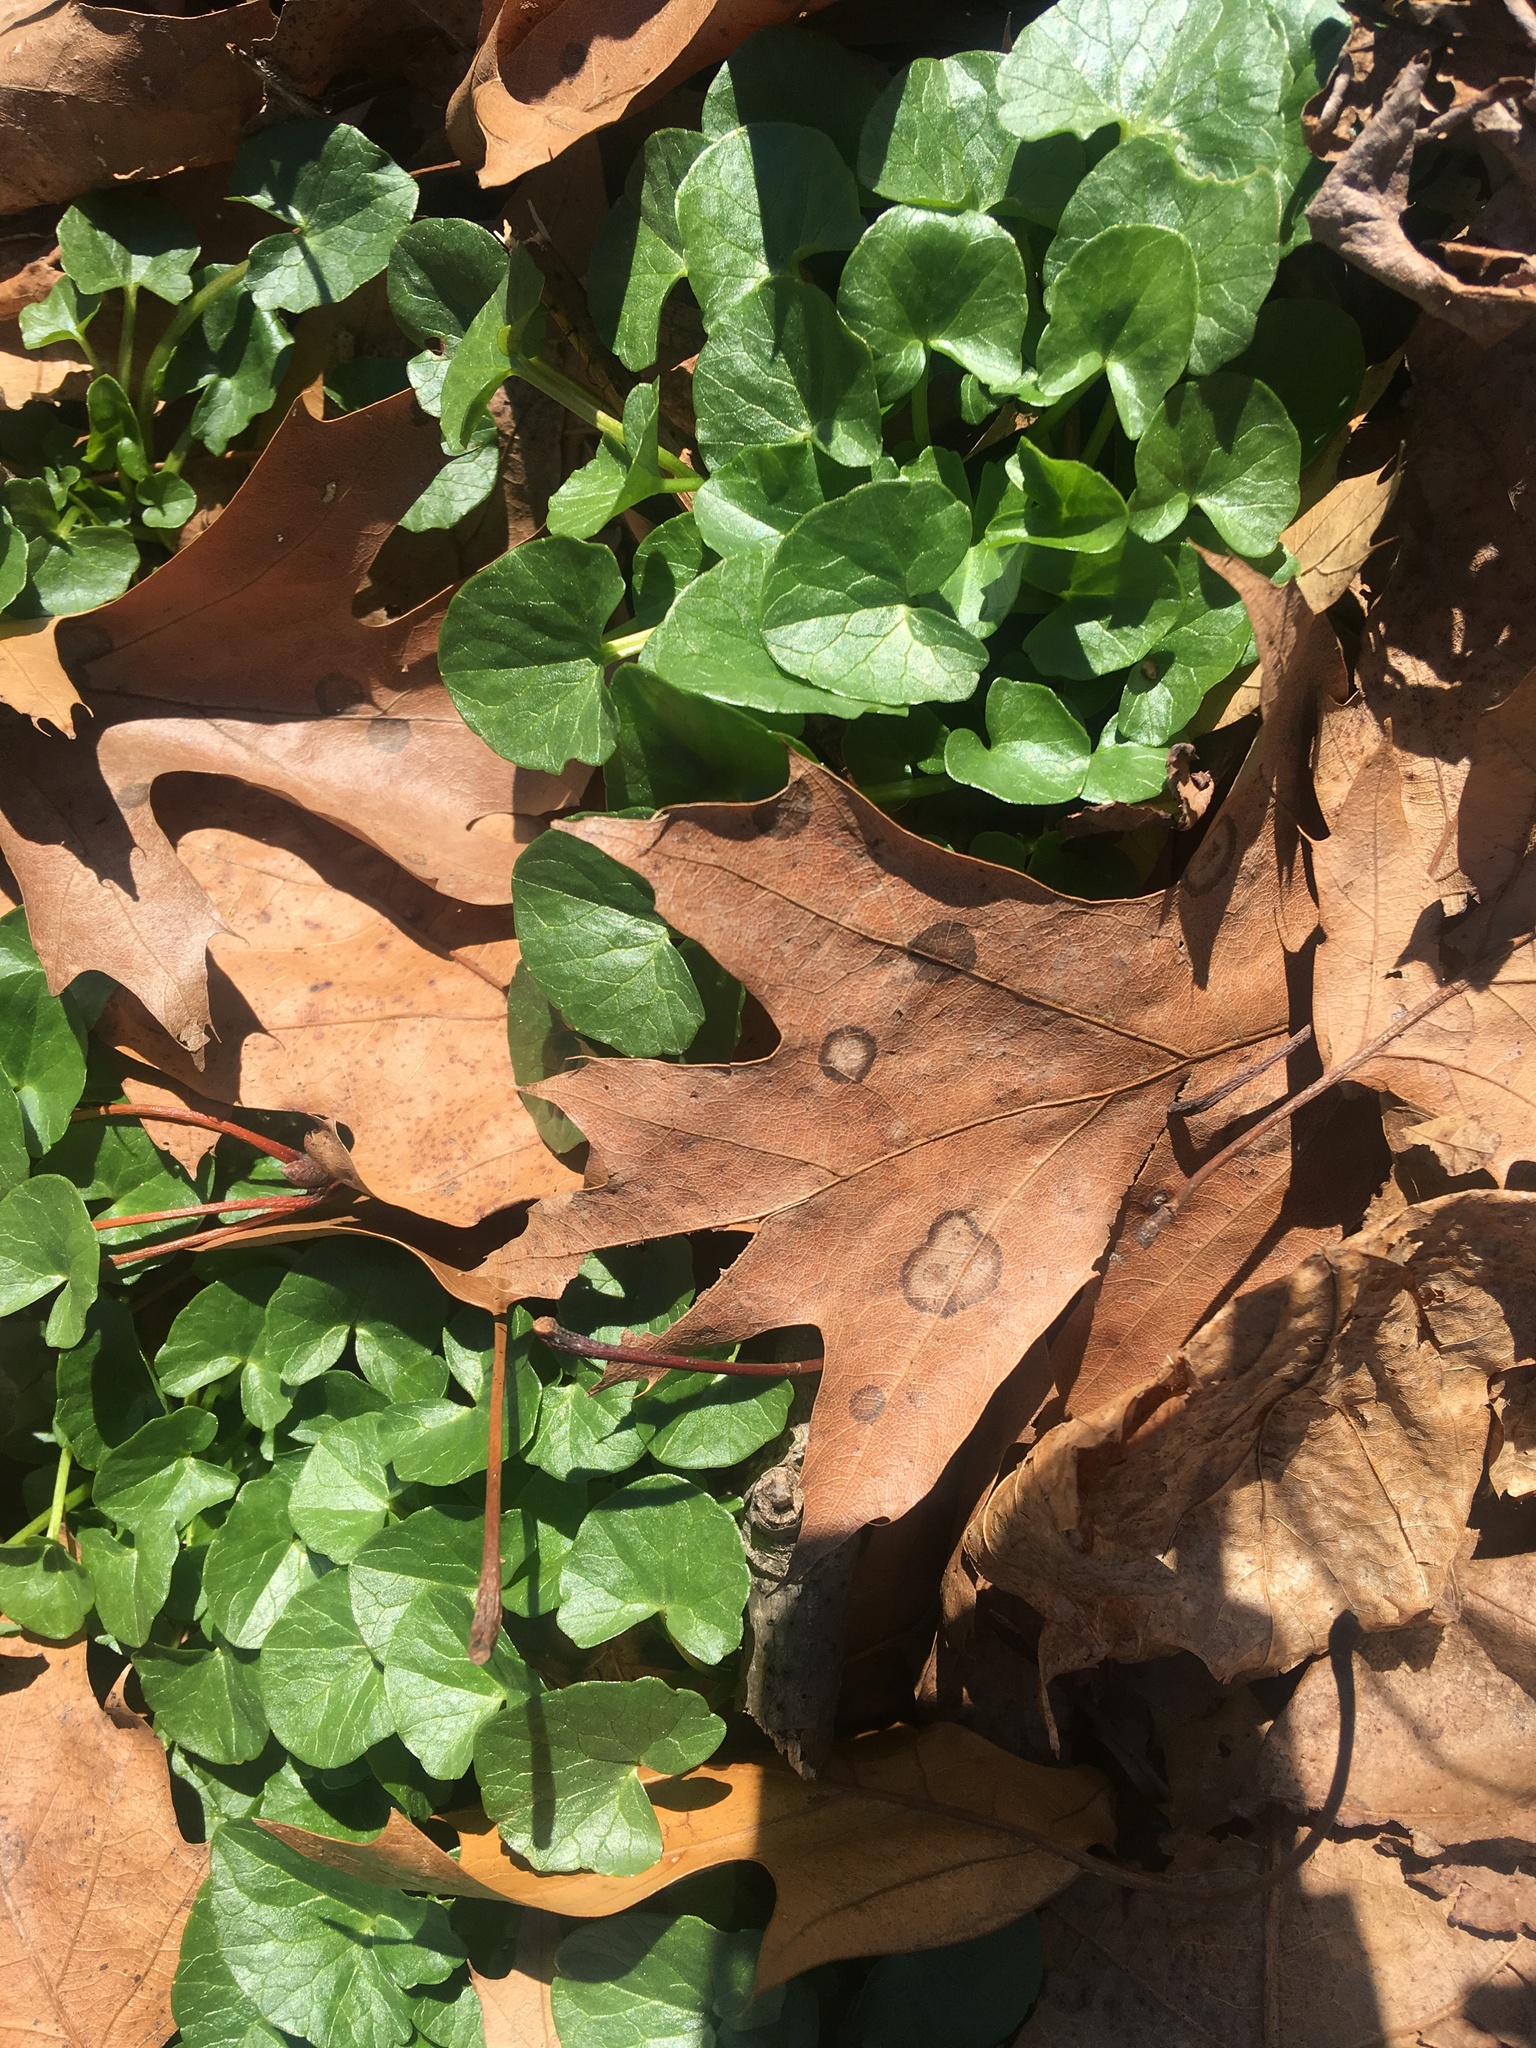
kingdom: Plantae
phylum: Tracheophyta
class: Magnoliopsida
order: Ranunculales
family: Ranunculaceae
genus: Ficaria
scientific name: Ficaria verna
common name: Lesser celandine
